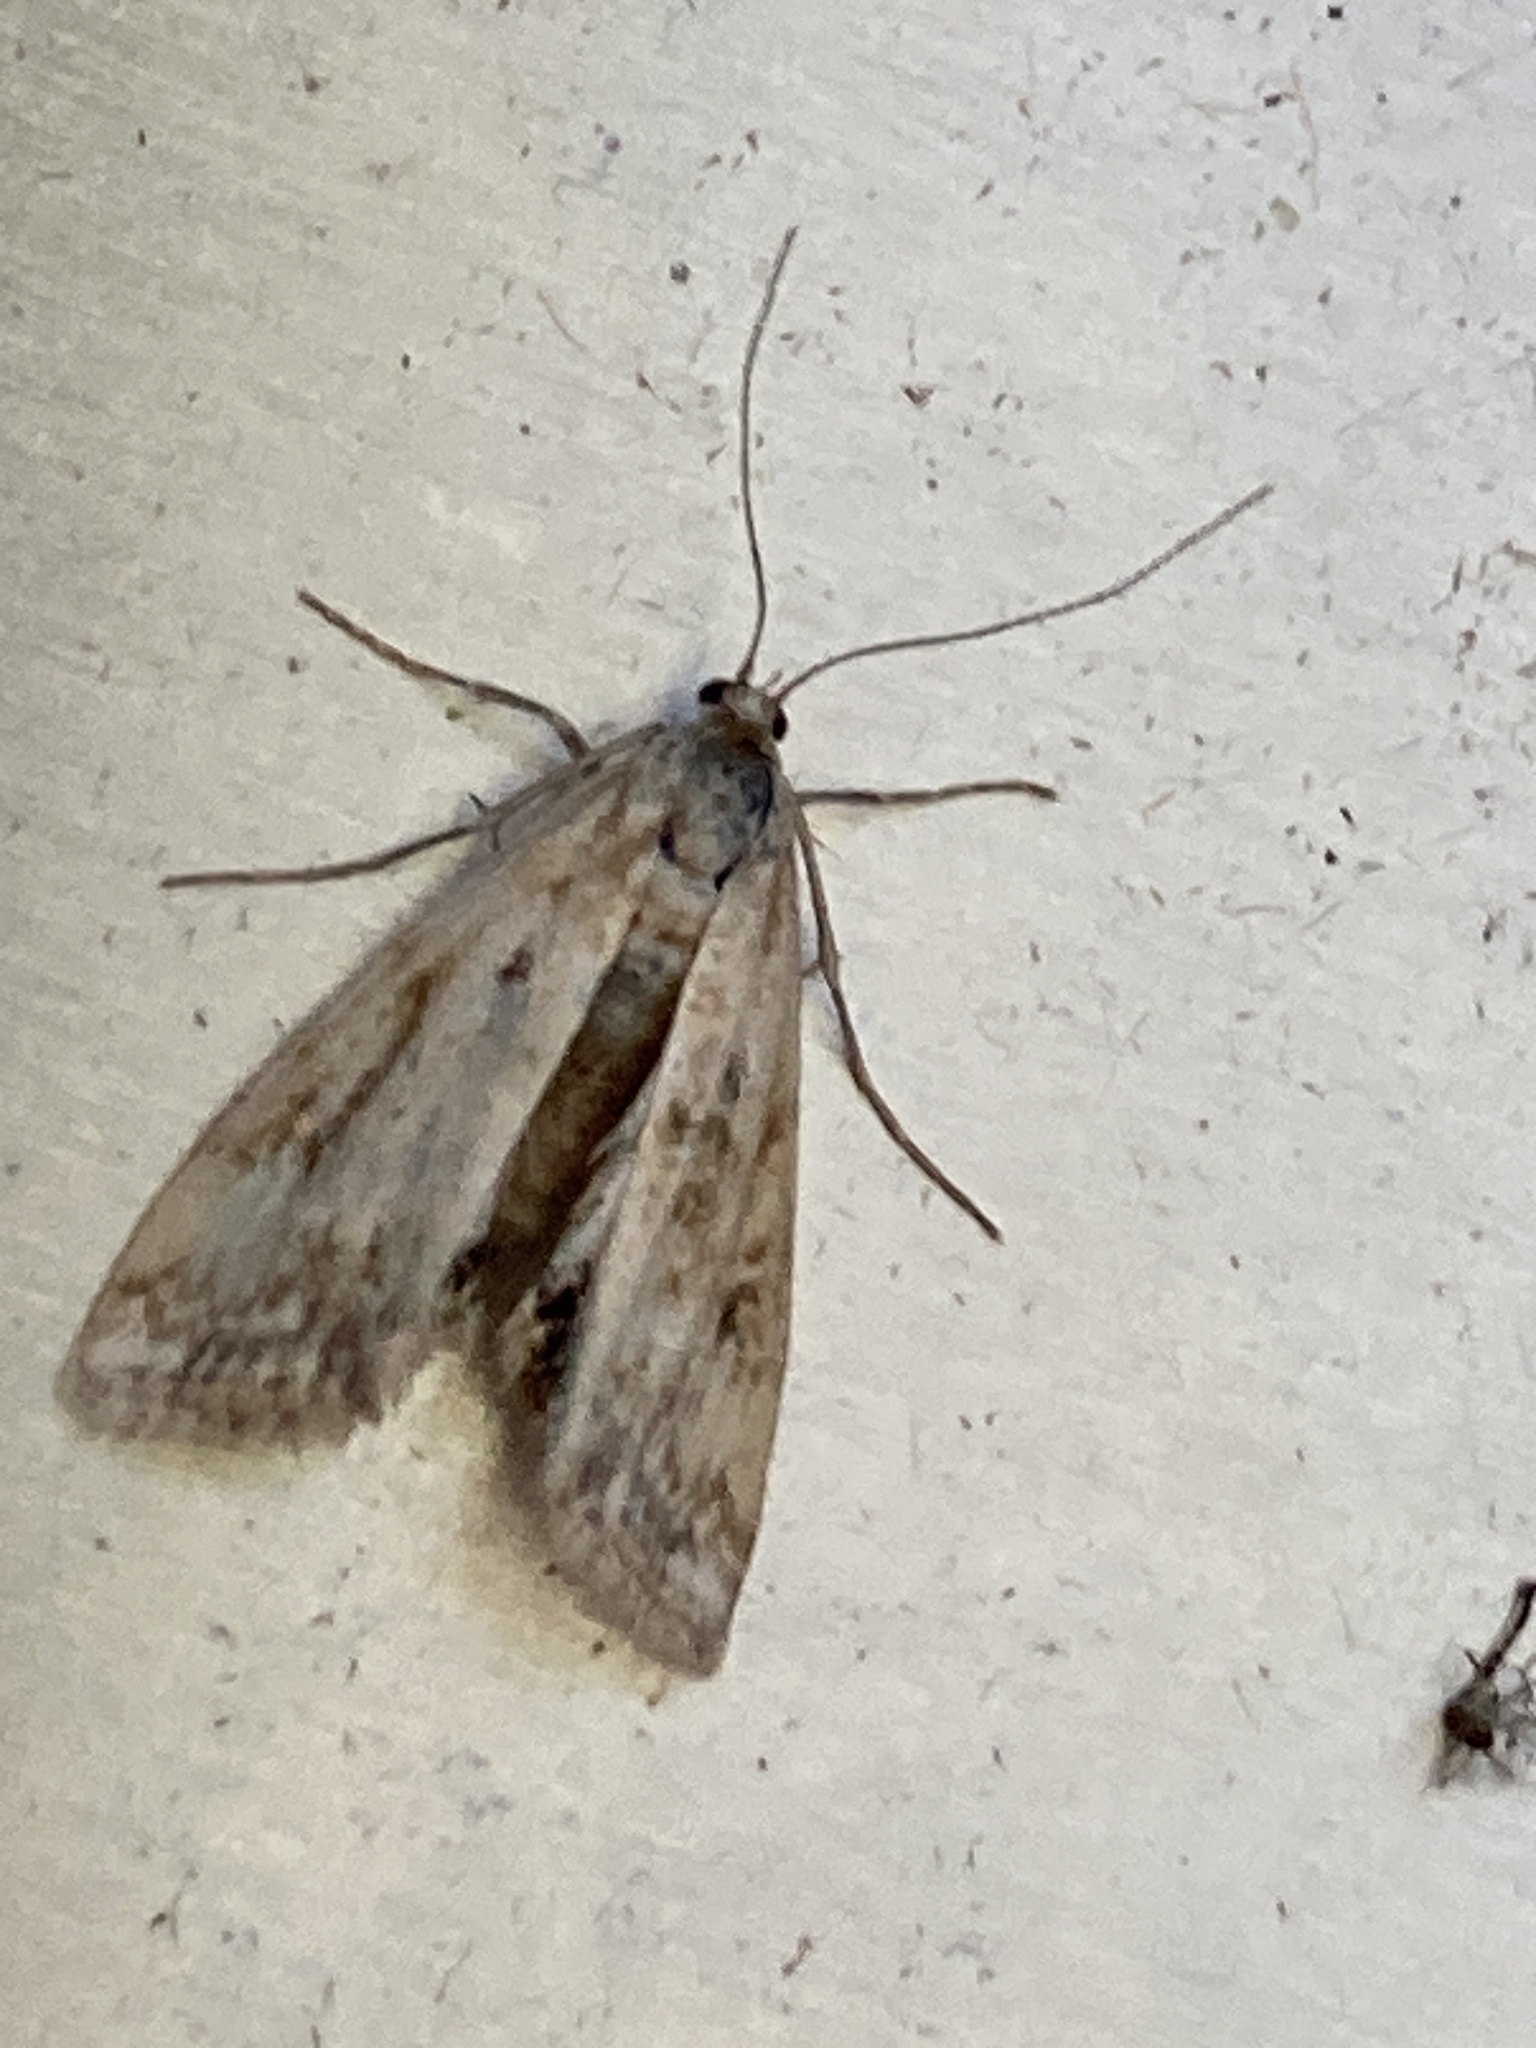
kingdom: Animalia
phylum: Arthropoda
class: Insecta
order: Lepidoptera
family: Crambidae
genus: Cataclysta
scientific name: Cataclysta lemnata
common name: Small china-mark
